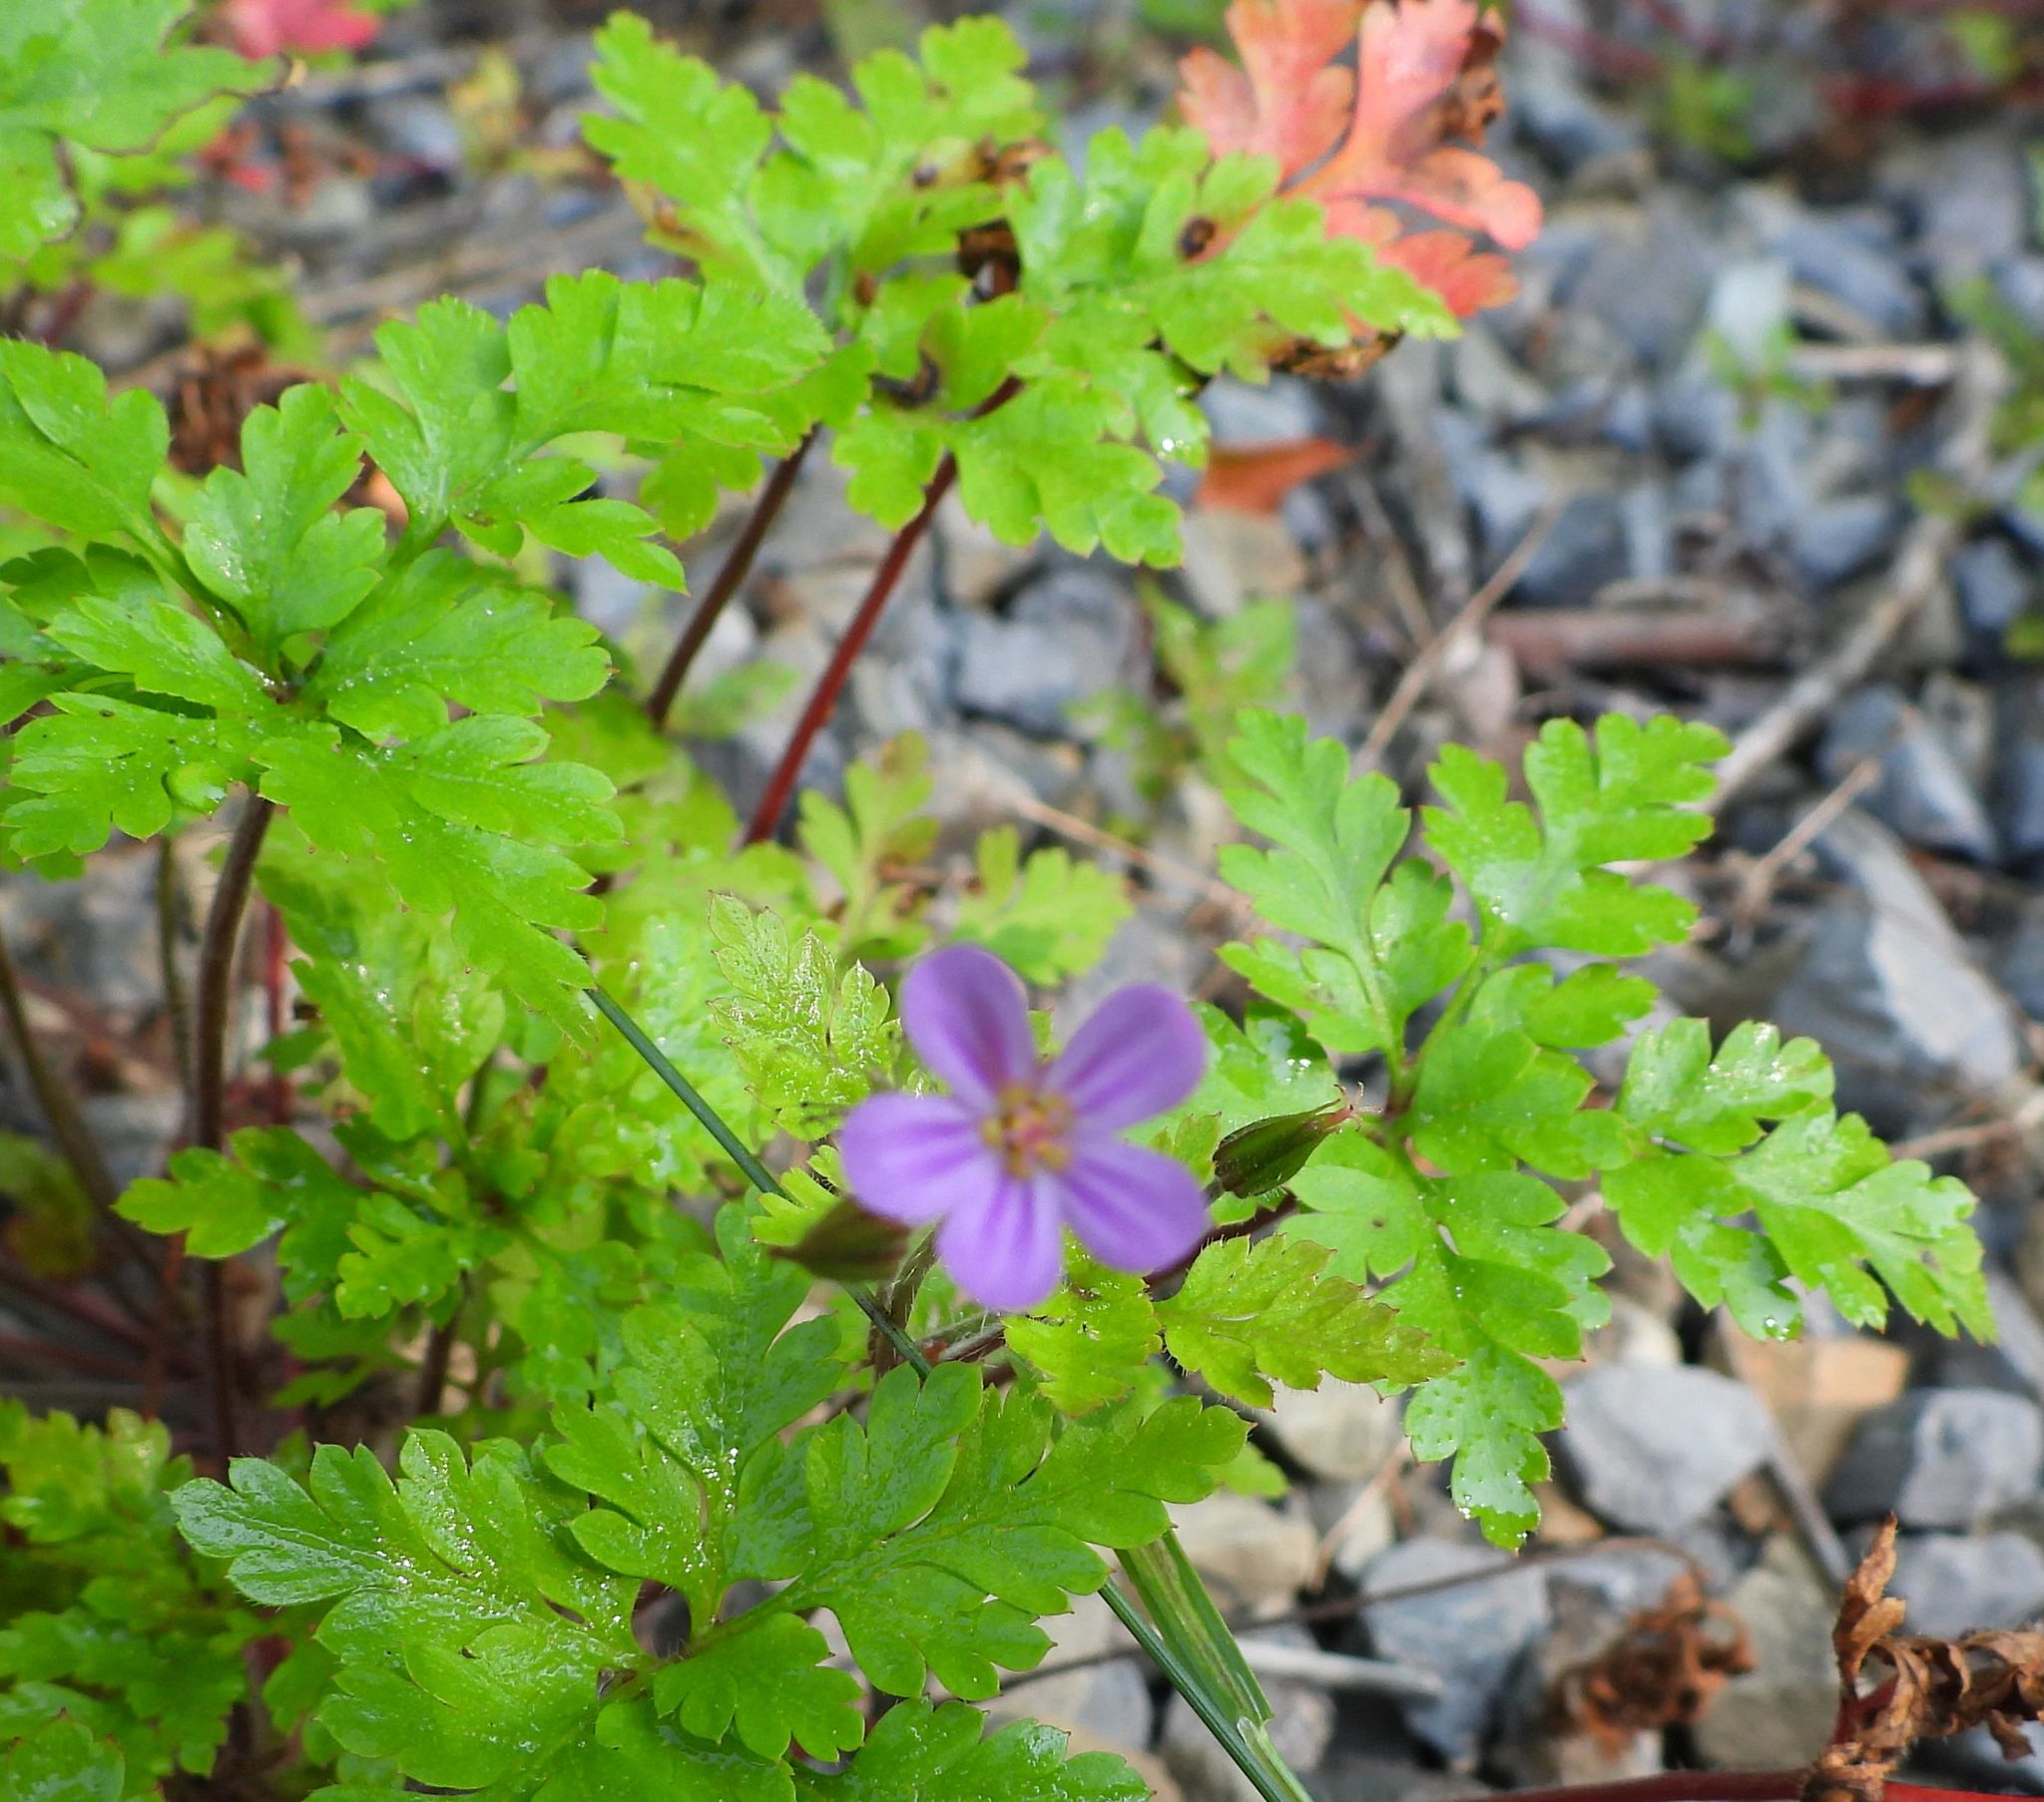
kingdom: Plantae
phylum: Tracheophyta
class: Magnoliopsida
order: Geraniales
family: Geraniaceae
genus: Geranium
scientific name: Geranium robertianum
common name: Herb-robert
